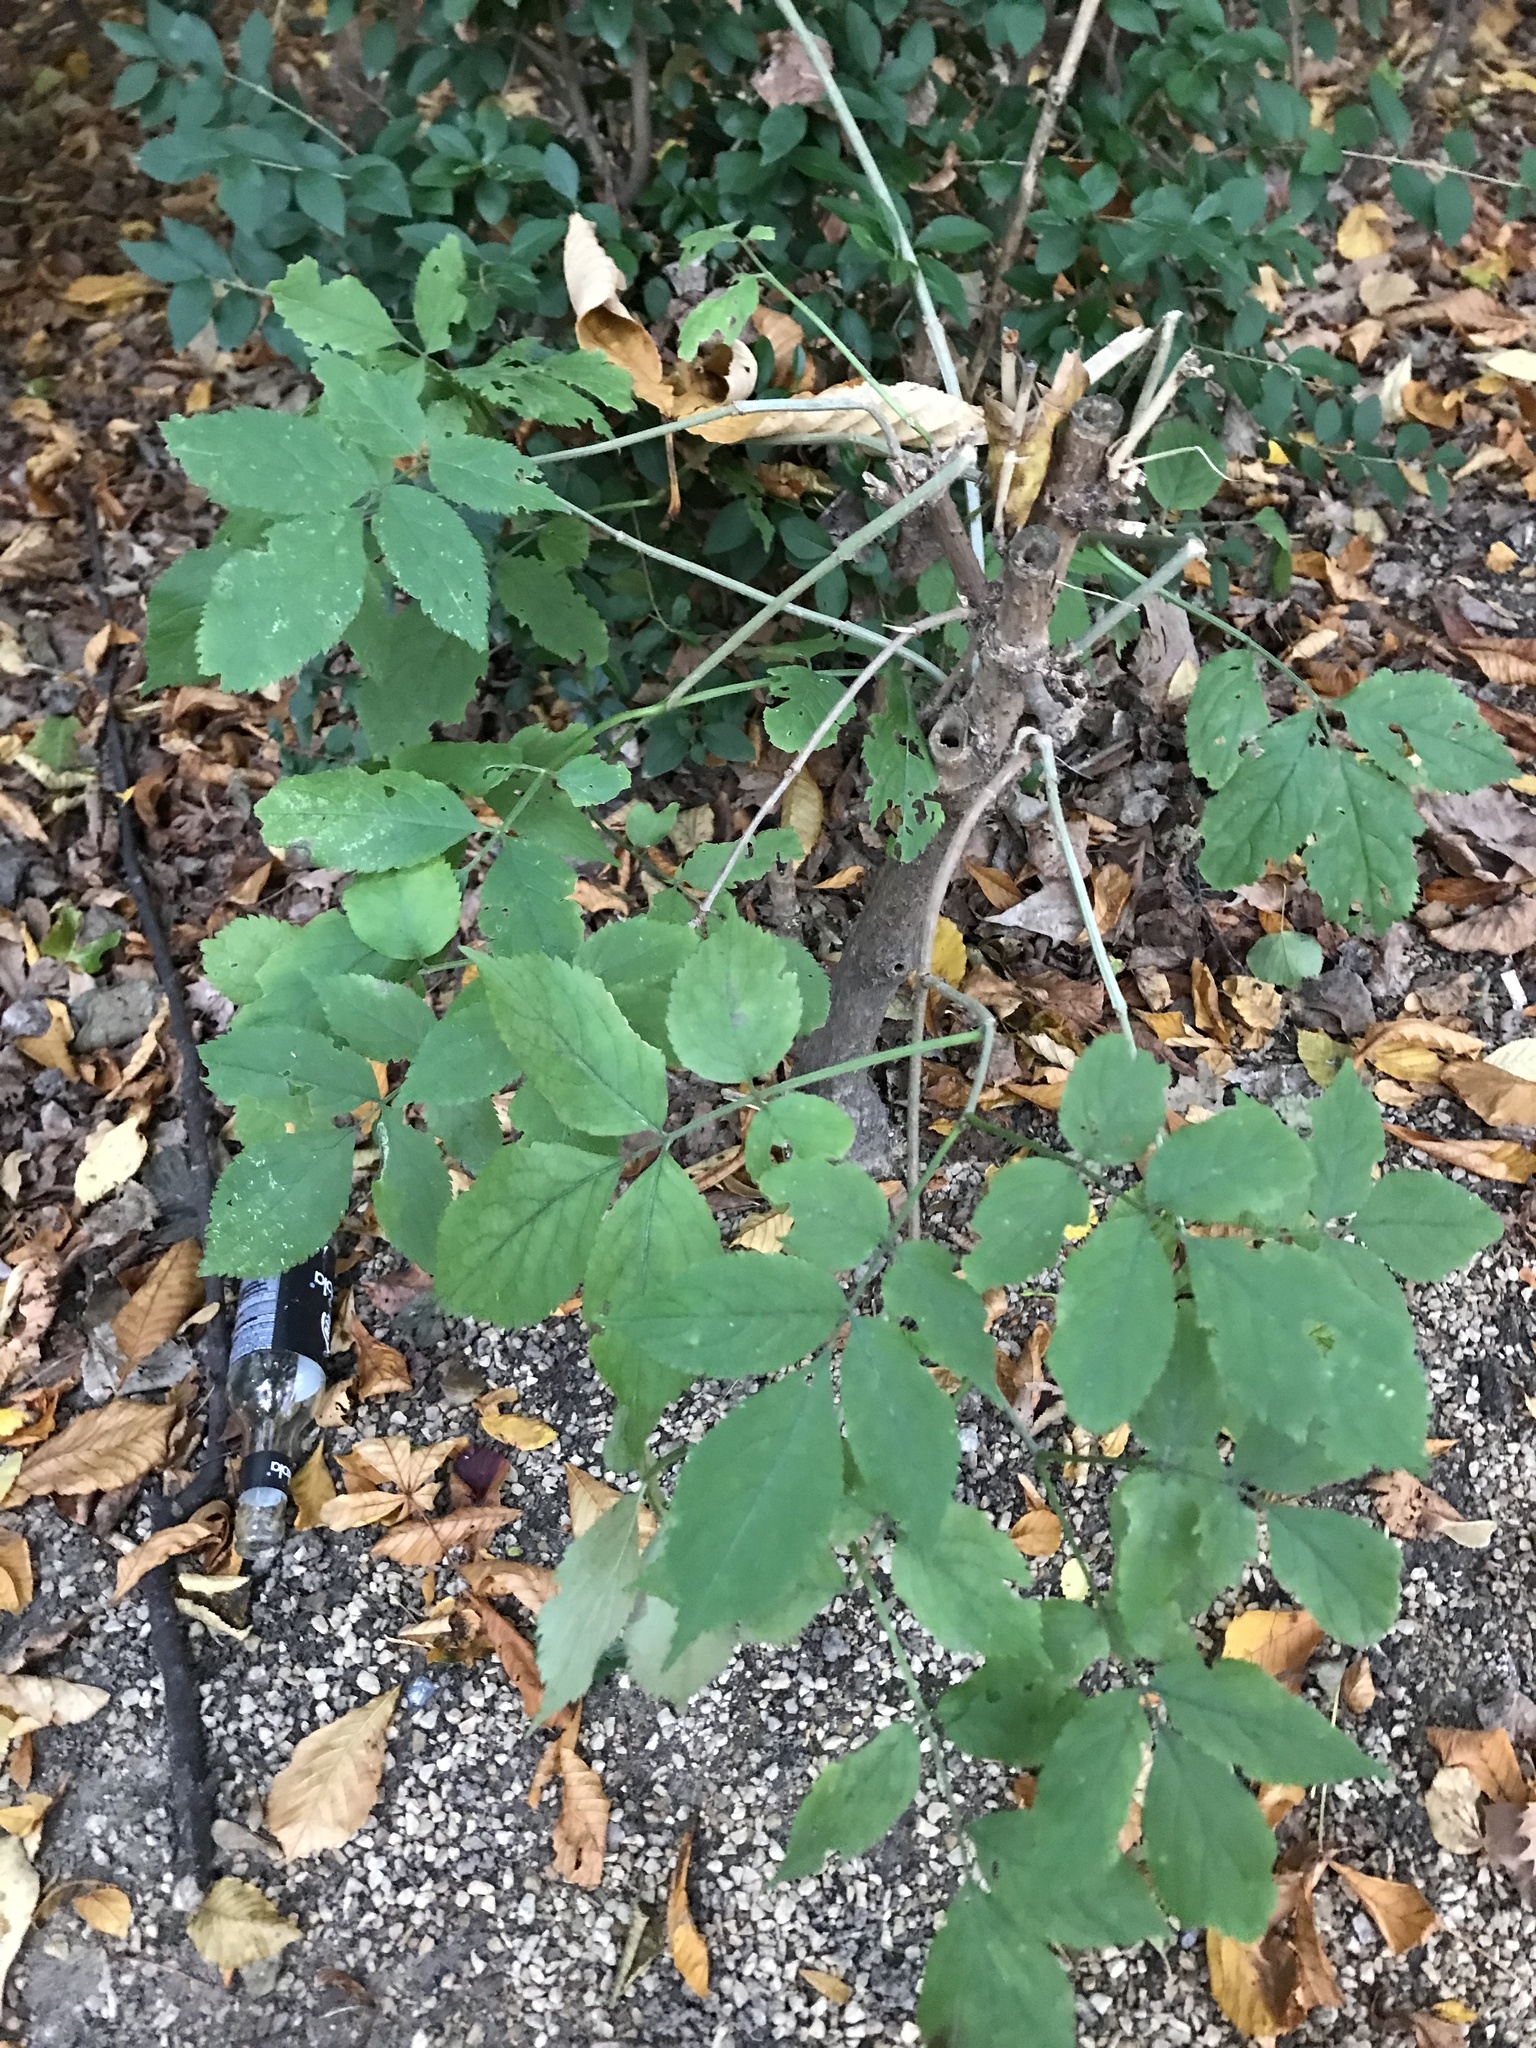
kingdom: Plantae
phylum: Tracheophyta
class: Magnoliopsida
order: Dipsacales
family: Viburnaceae
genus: Sambucus
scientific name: Sambucus nigra
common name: Elder
